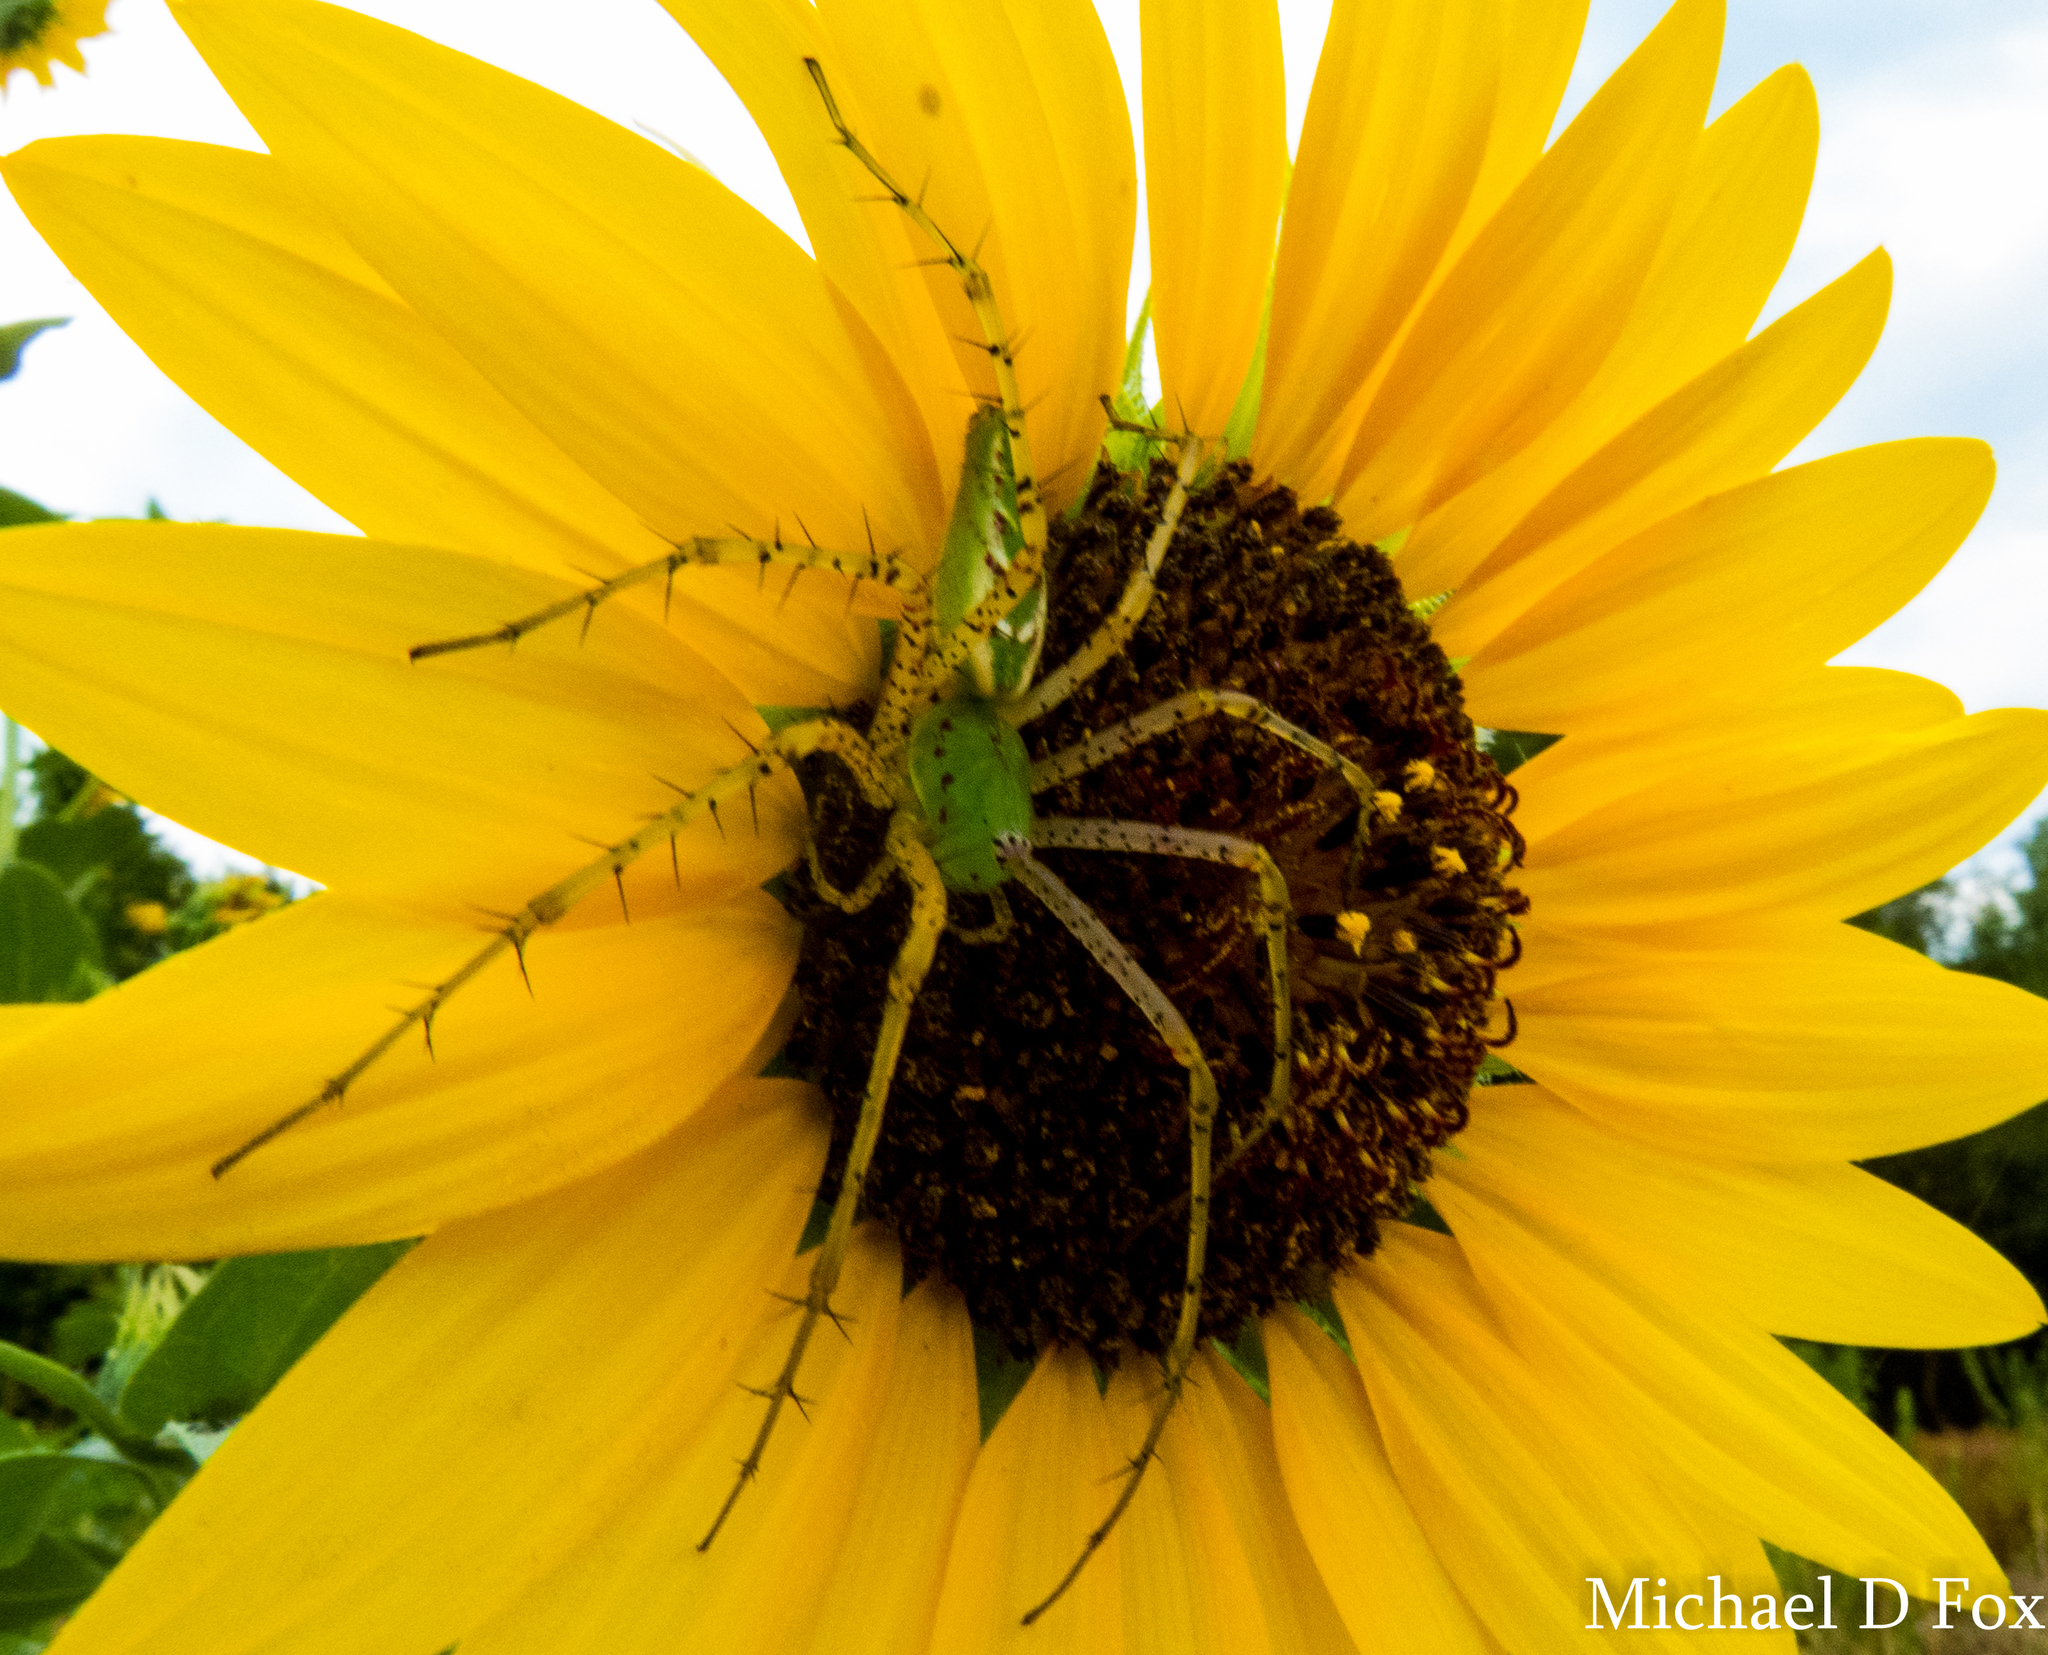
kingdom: Animalia
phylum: Arthropoda
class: Arachnida
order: Araneae
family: Oxyopidae
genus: Peucetia
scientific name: Peucetia viridans
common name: Lynx spiders
